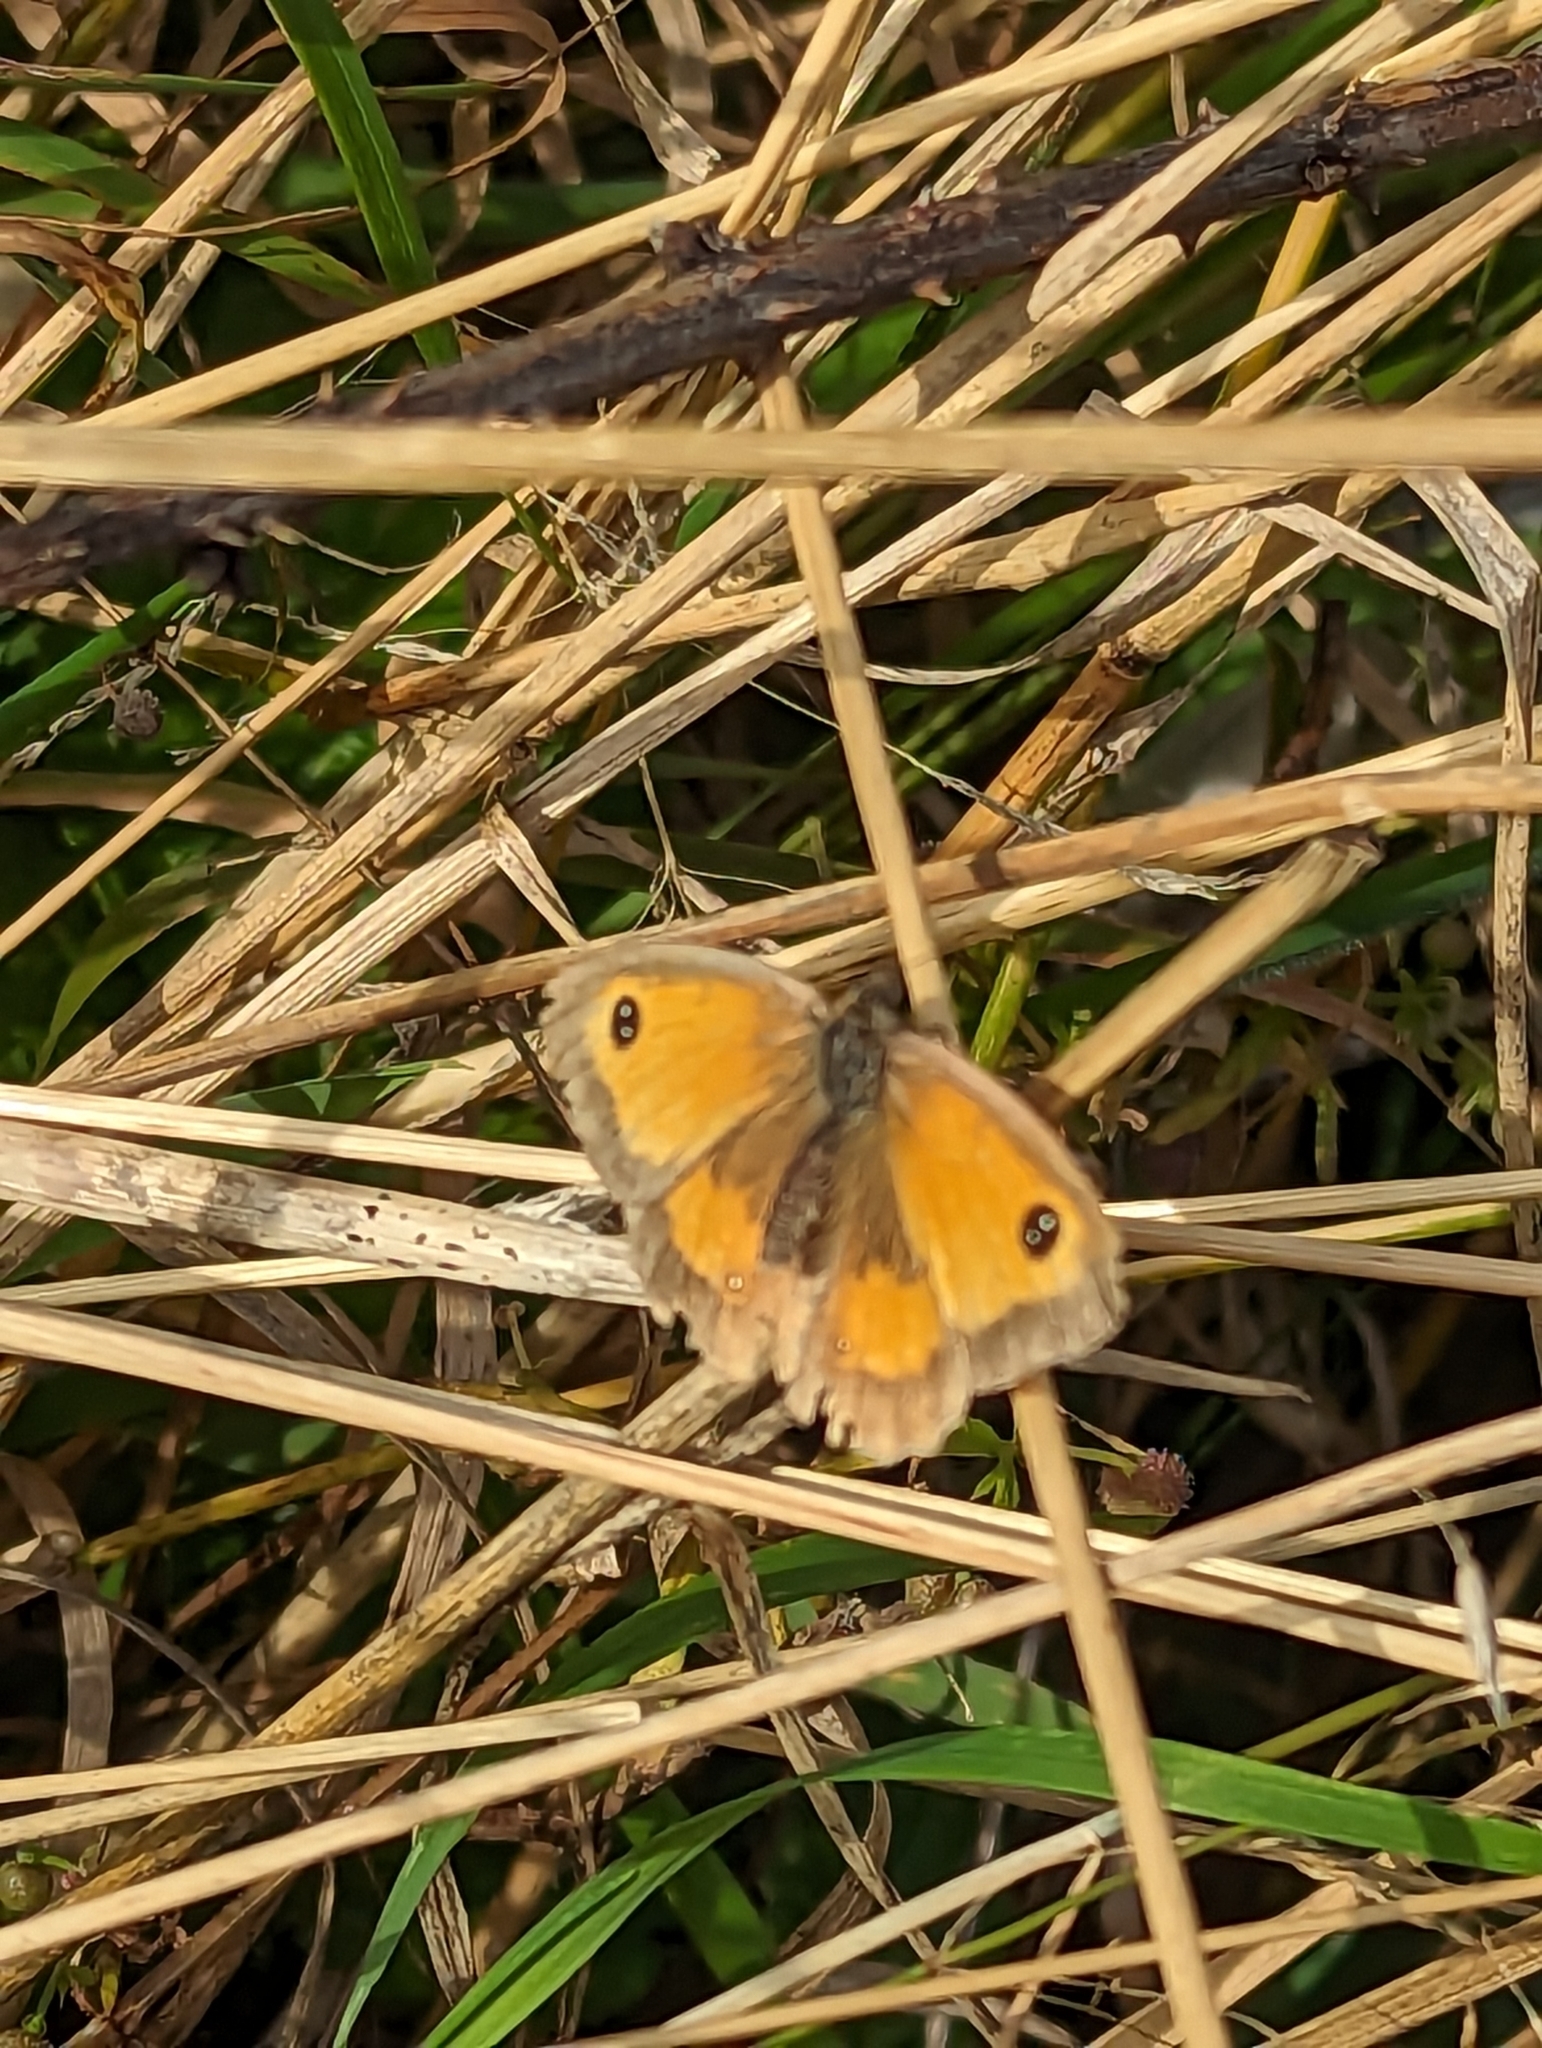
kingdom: Animalia
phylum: Arthropoda
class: Insecta
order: Lepidoptera
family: Nymphalidae
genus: Pyronia
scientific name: Pyronia tithonus
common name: Gatekeeper
